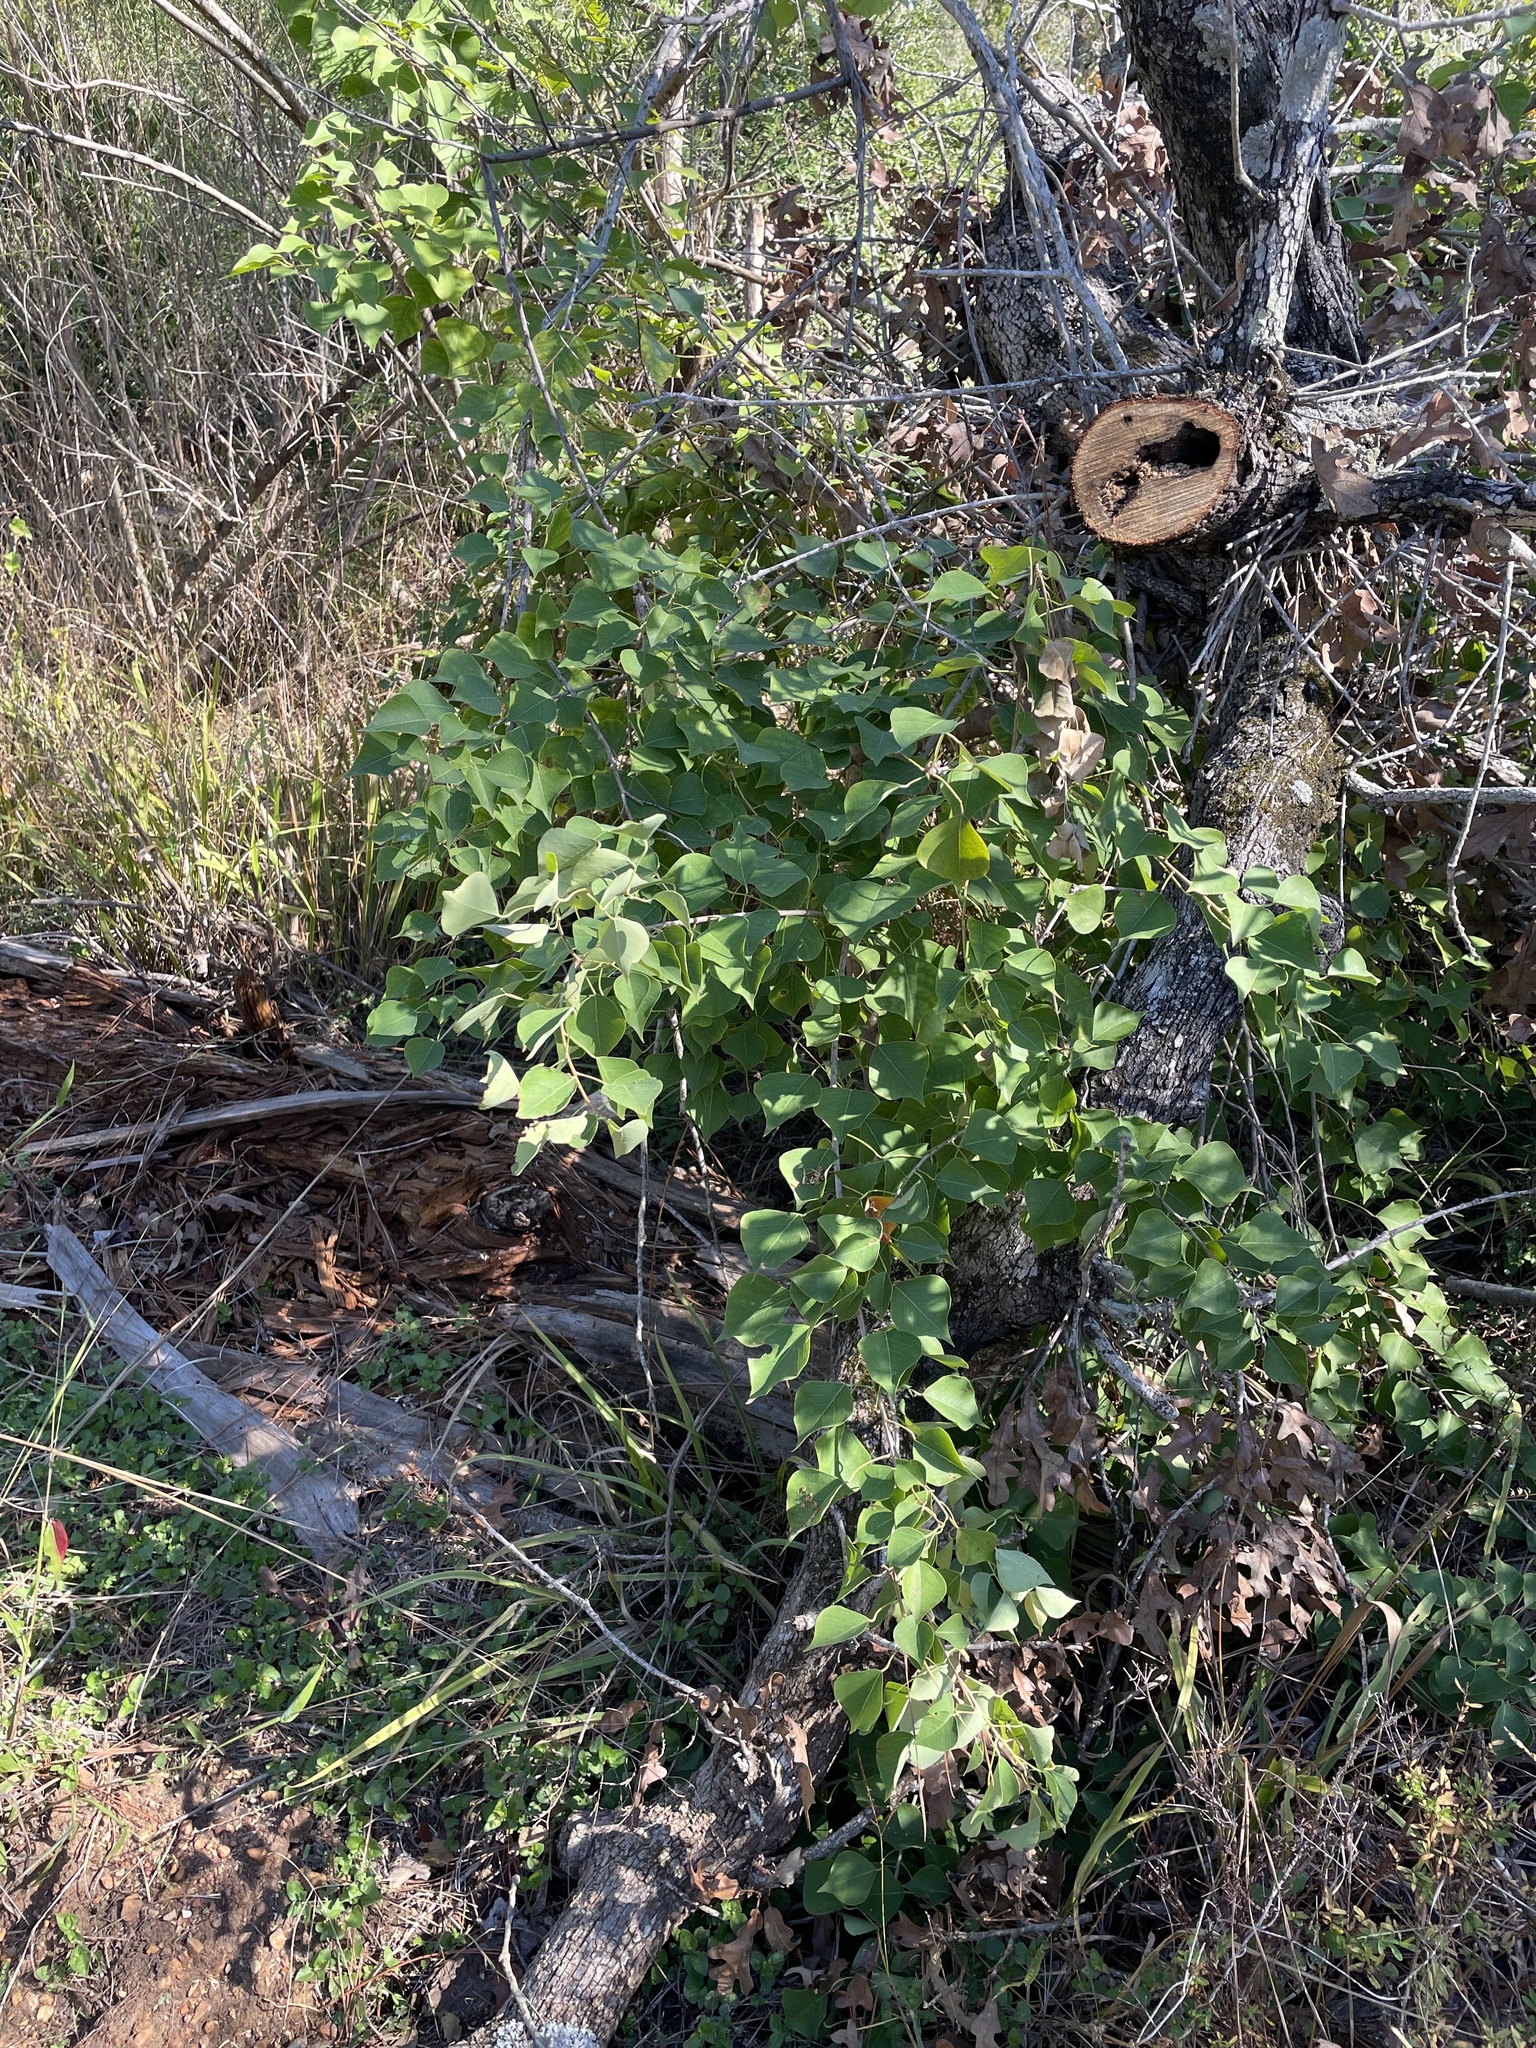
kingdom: Plantae
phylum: Tracheophyta
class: Magnoliopsida
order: Malpighiales
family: Euphorbiaceae
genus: Triadica
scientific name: Triadica sebifera
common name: Chinese tallow
